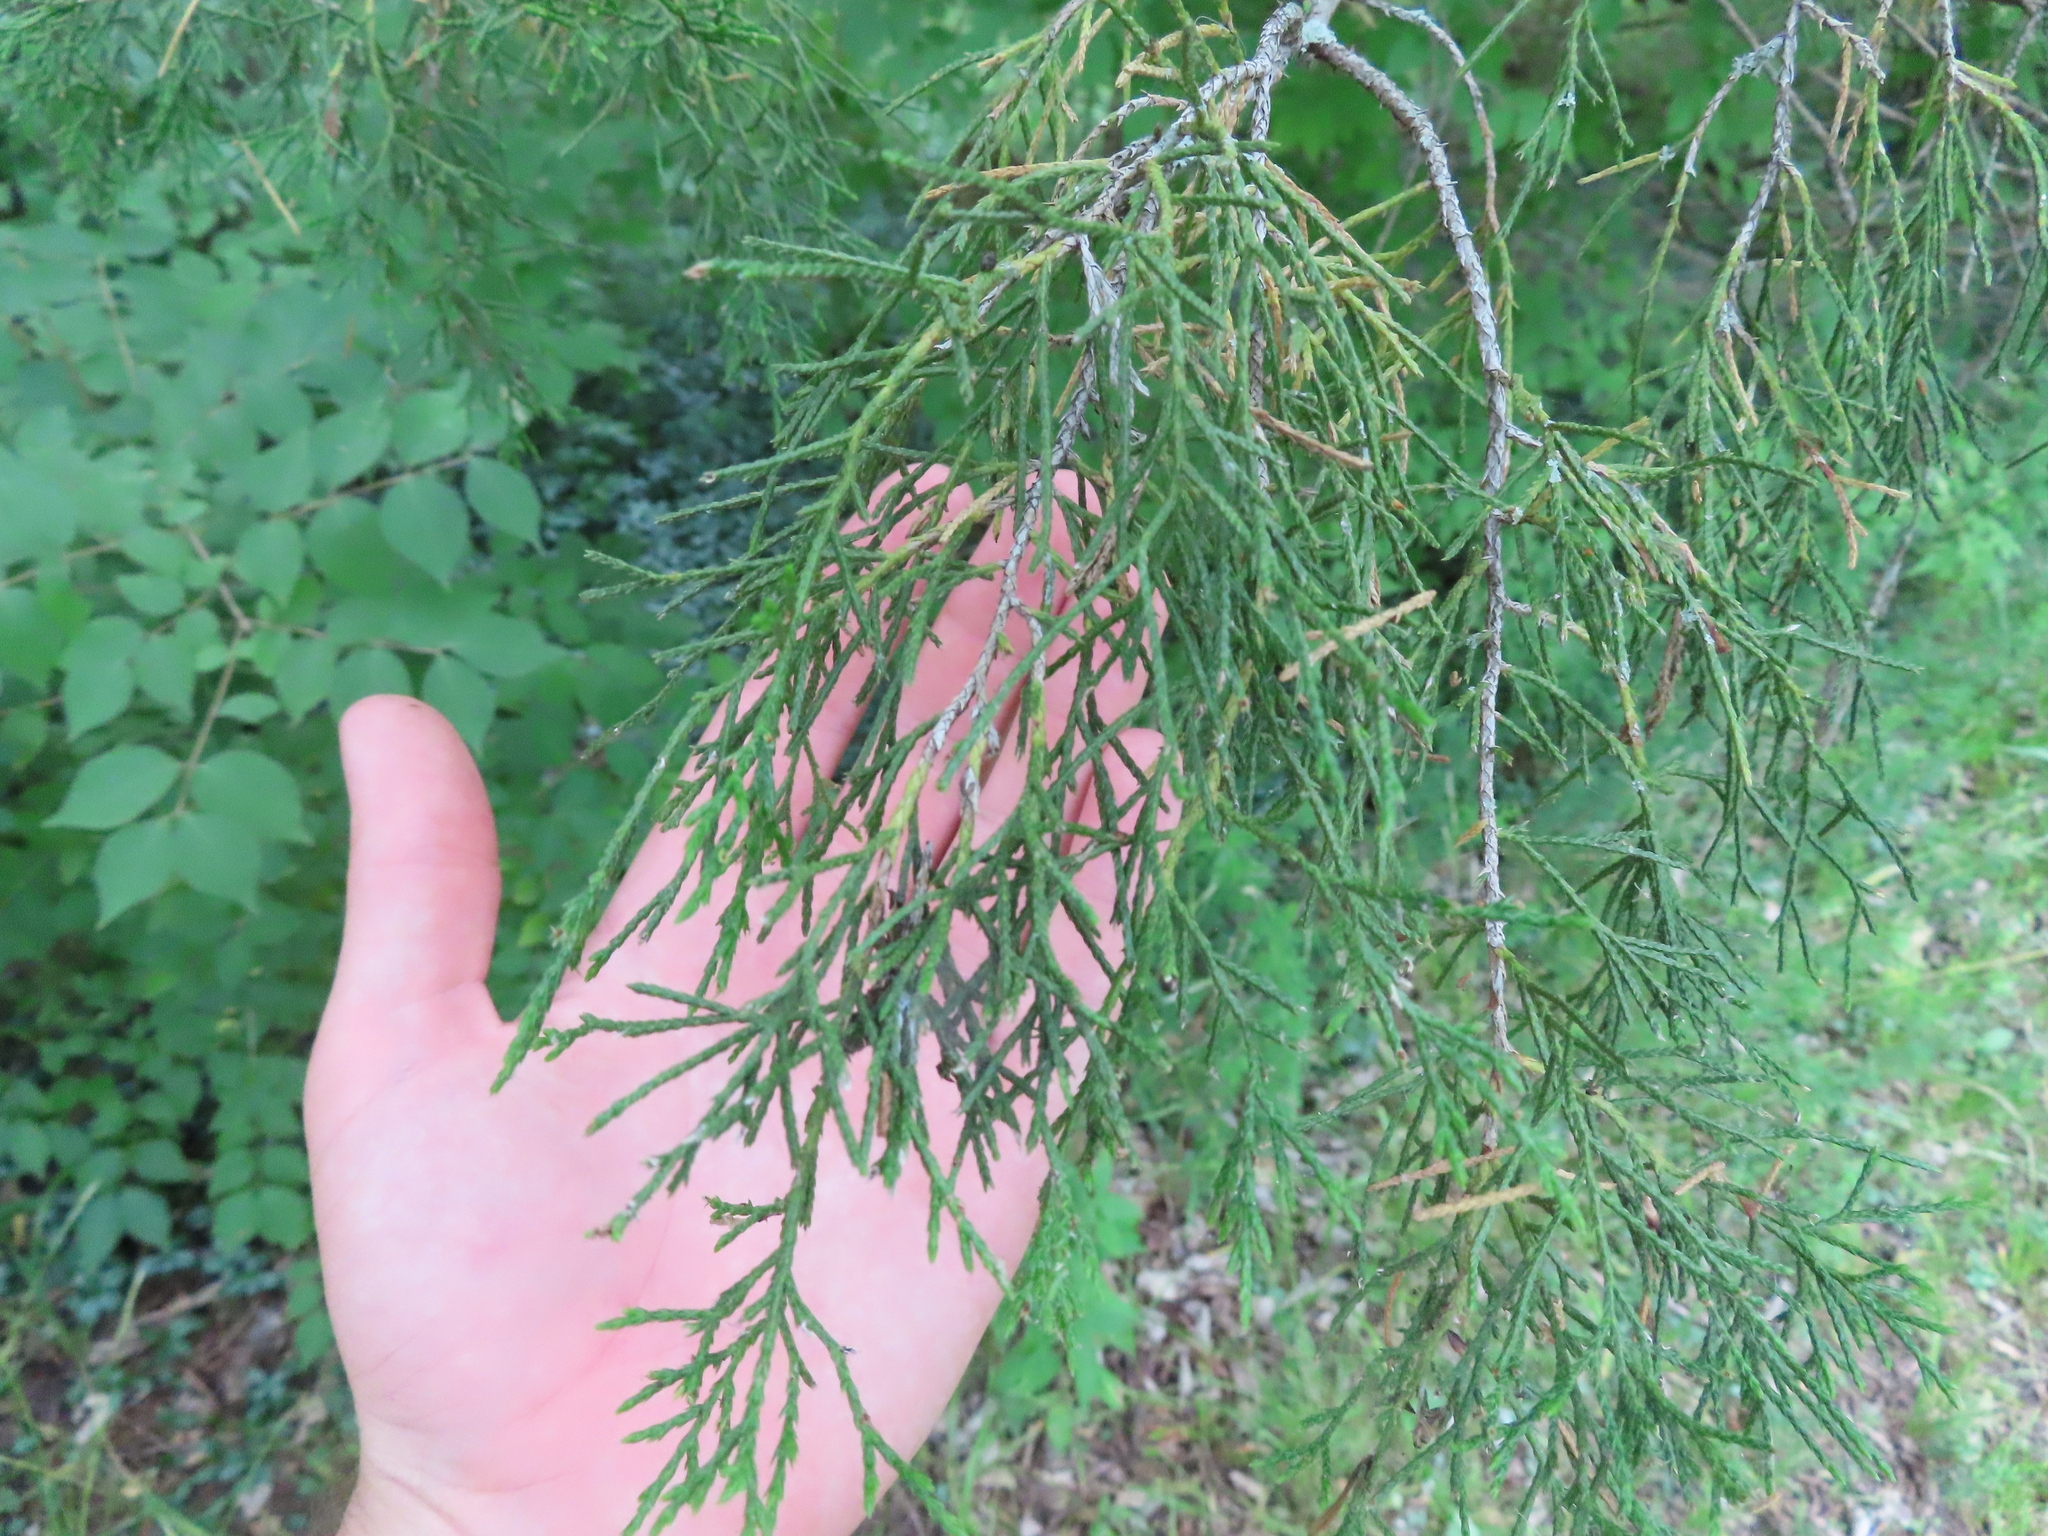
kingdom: Plantae
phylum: Tracheophyta
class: Pinopsida
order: Pinales
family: Cupressaceae
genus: Juniperus
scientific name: Juniperus virginiana
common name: Red juniper
